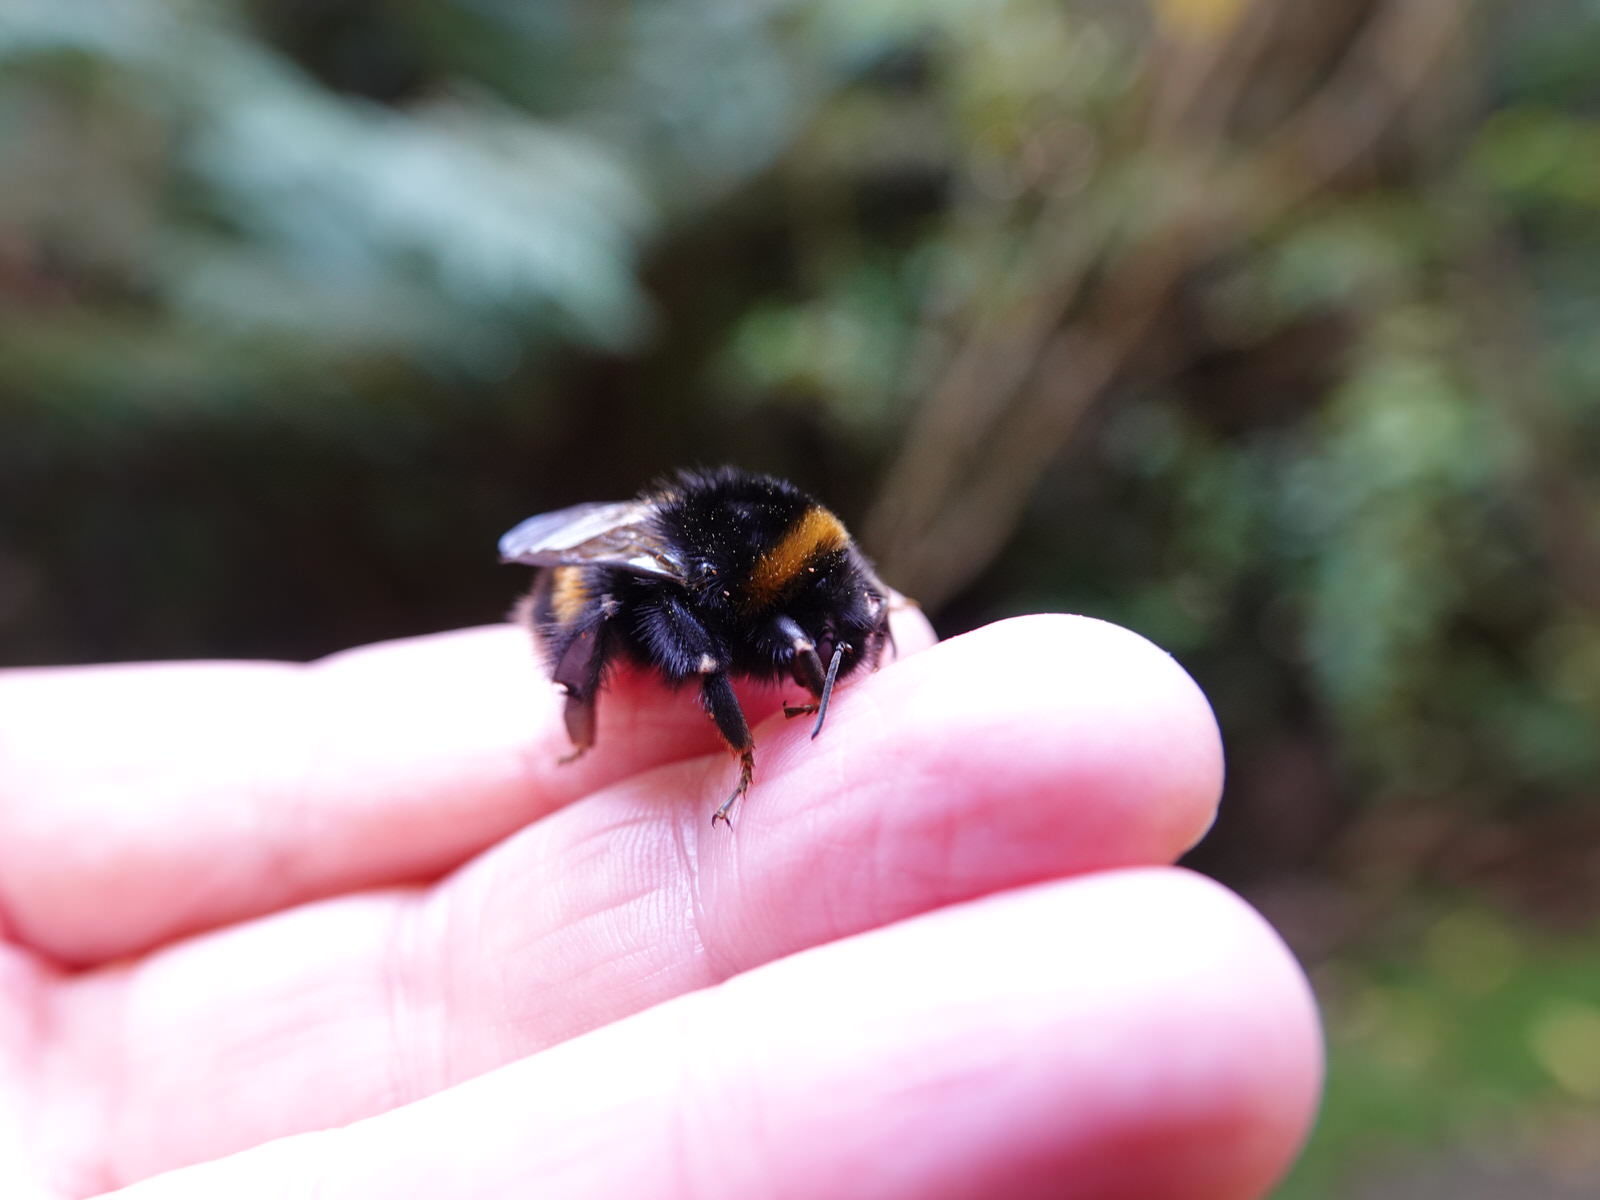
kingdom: Animalia
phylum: Arthropoda
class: Insecta
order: Hymenoptera
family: Apidae
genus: Bombus
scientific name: Bombus terrestris
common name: Buff-tailed bumblebee
